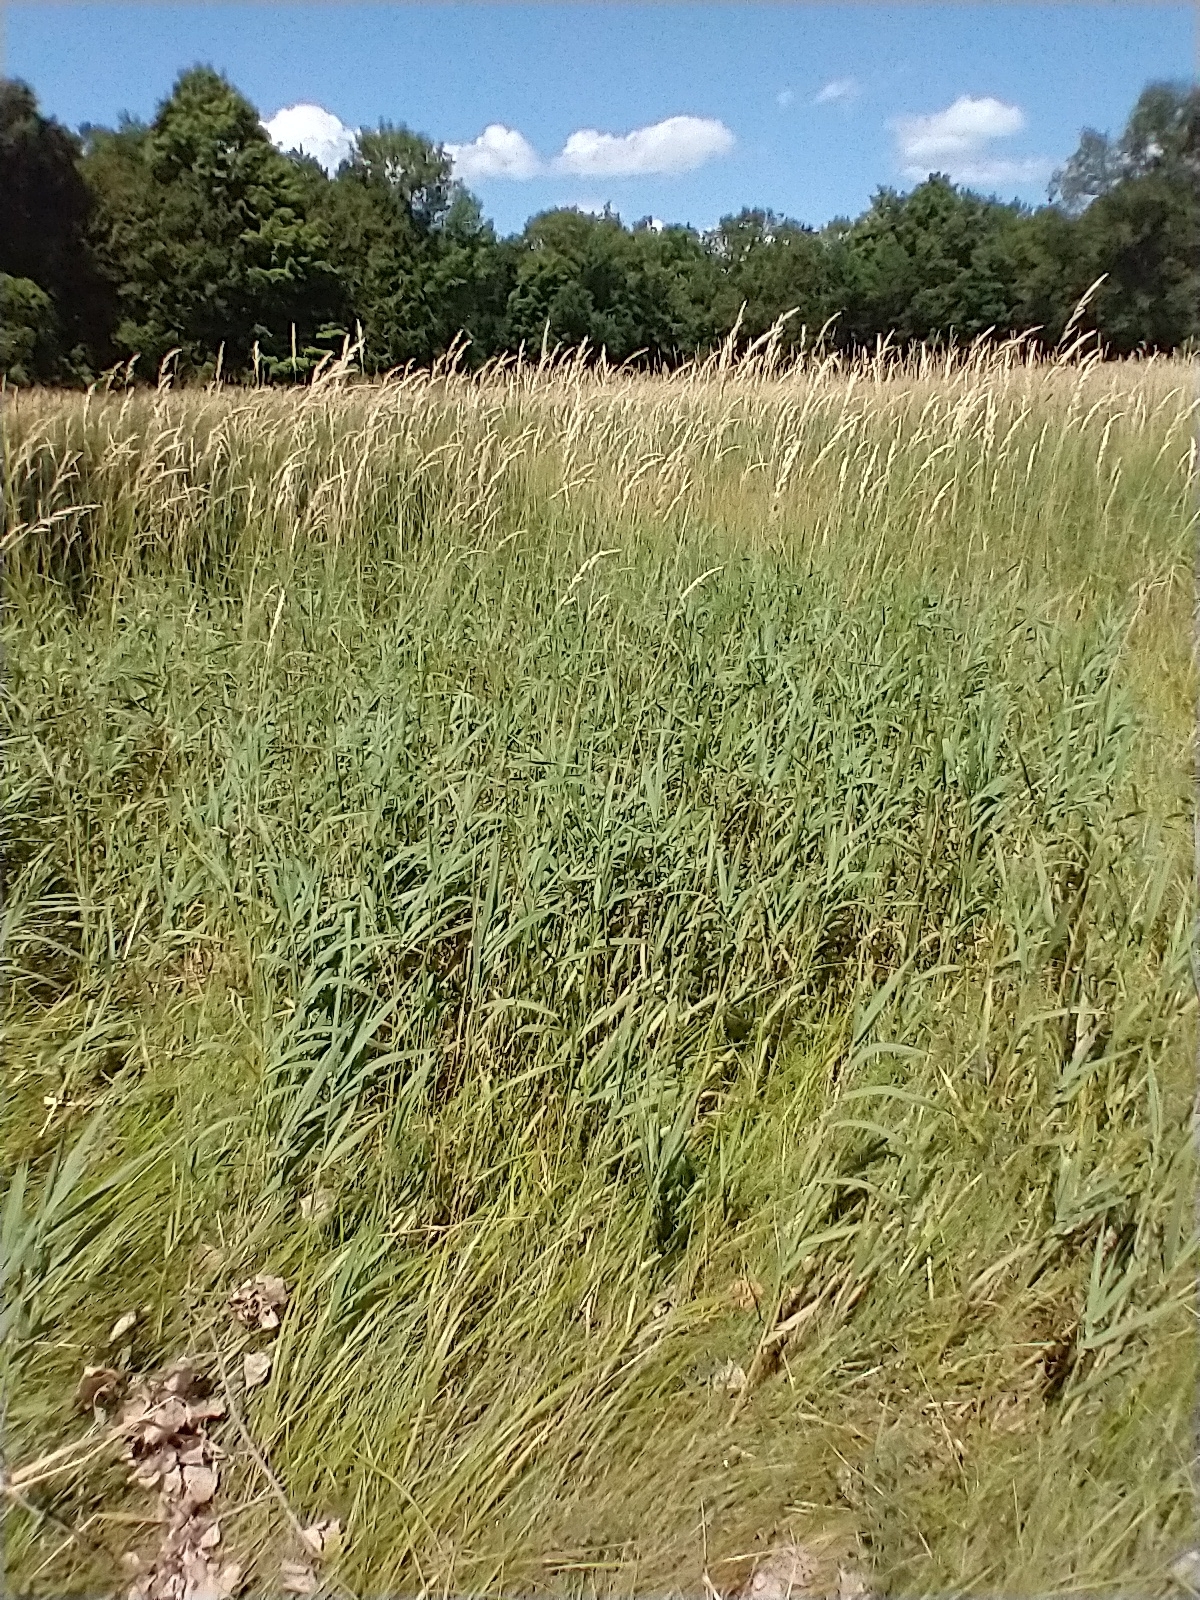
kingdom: Plantae
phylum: Tracheophyta
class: Liliopsida
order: Poales
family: Poaceae
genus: Phalaris
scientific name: Phalaris arundinacea
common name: Reed canary-grass
